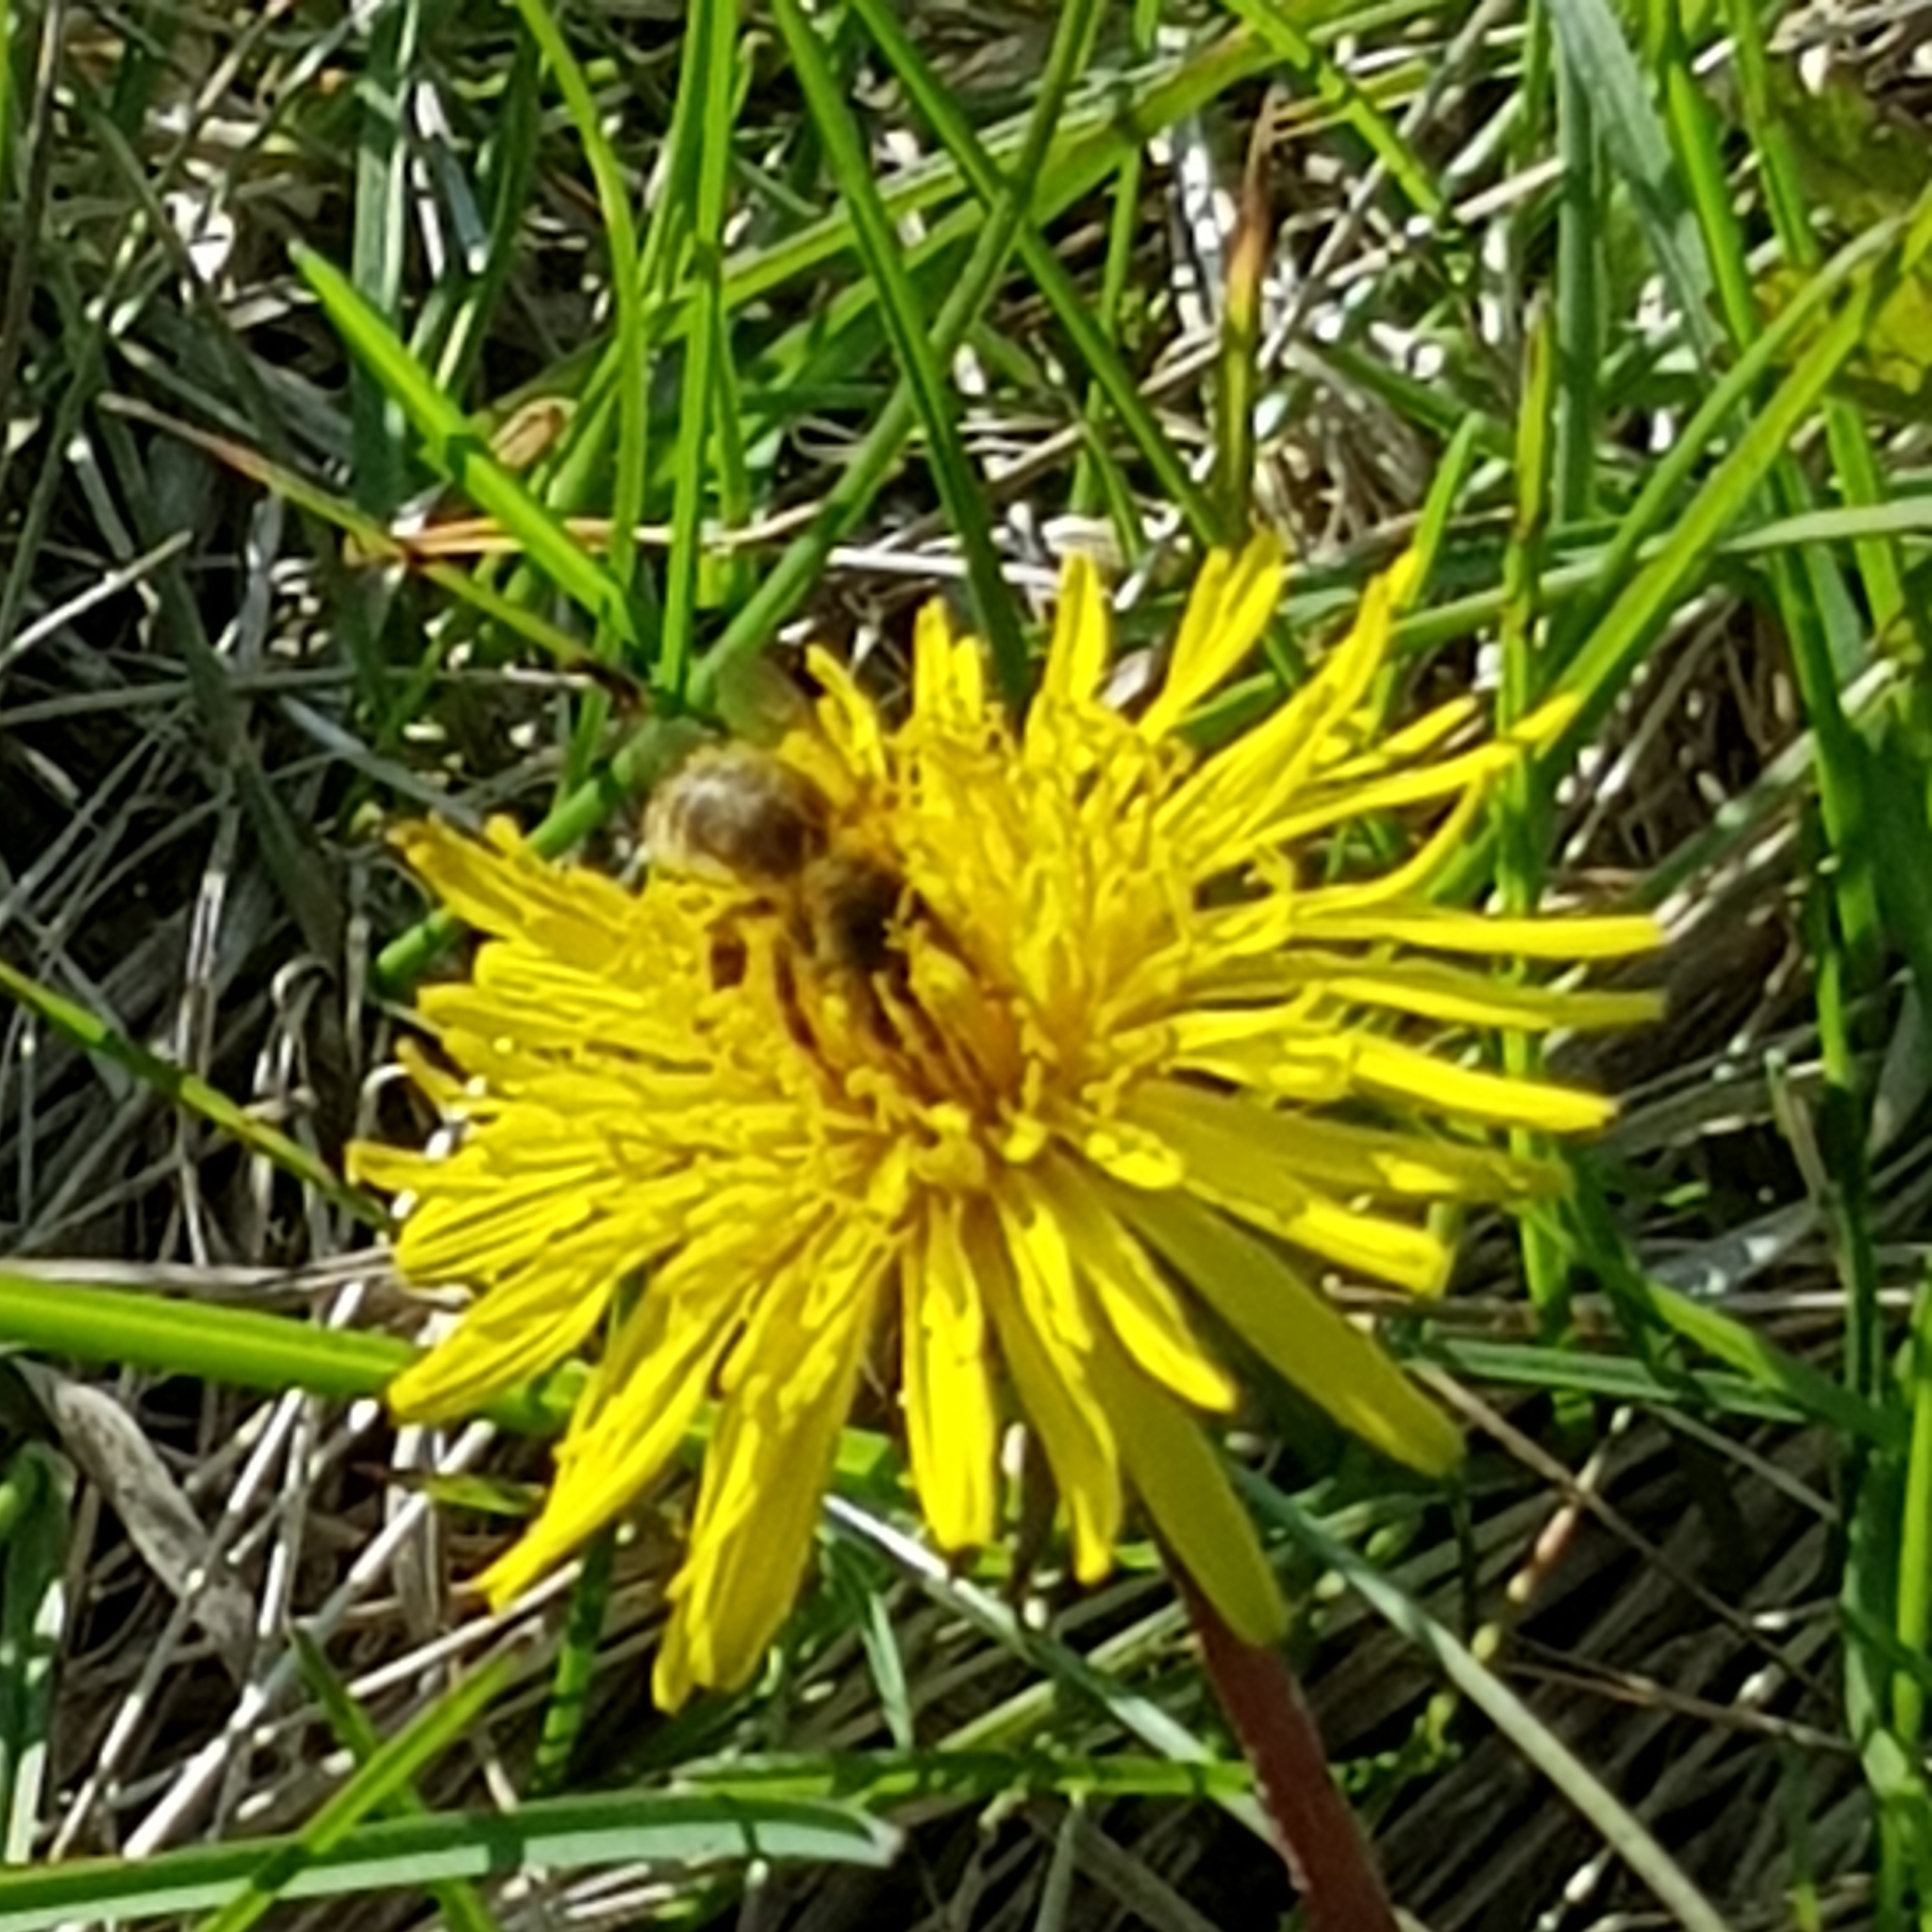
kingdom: Animalia
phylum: Arthropoda
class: Insecta
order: Hymenoptera
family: Apidae
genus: Apis
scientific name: Apis mellifera
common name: Honey bee
